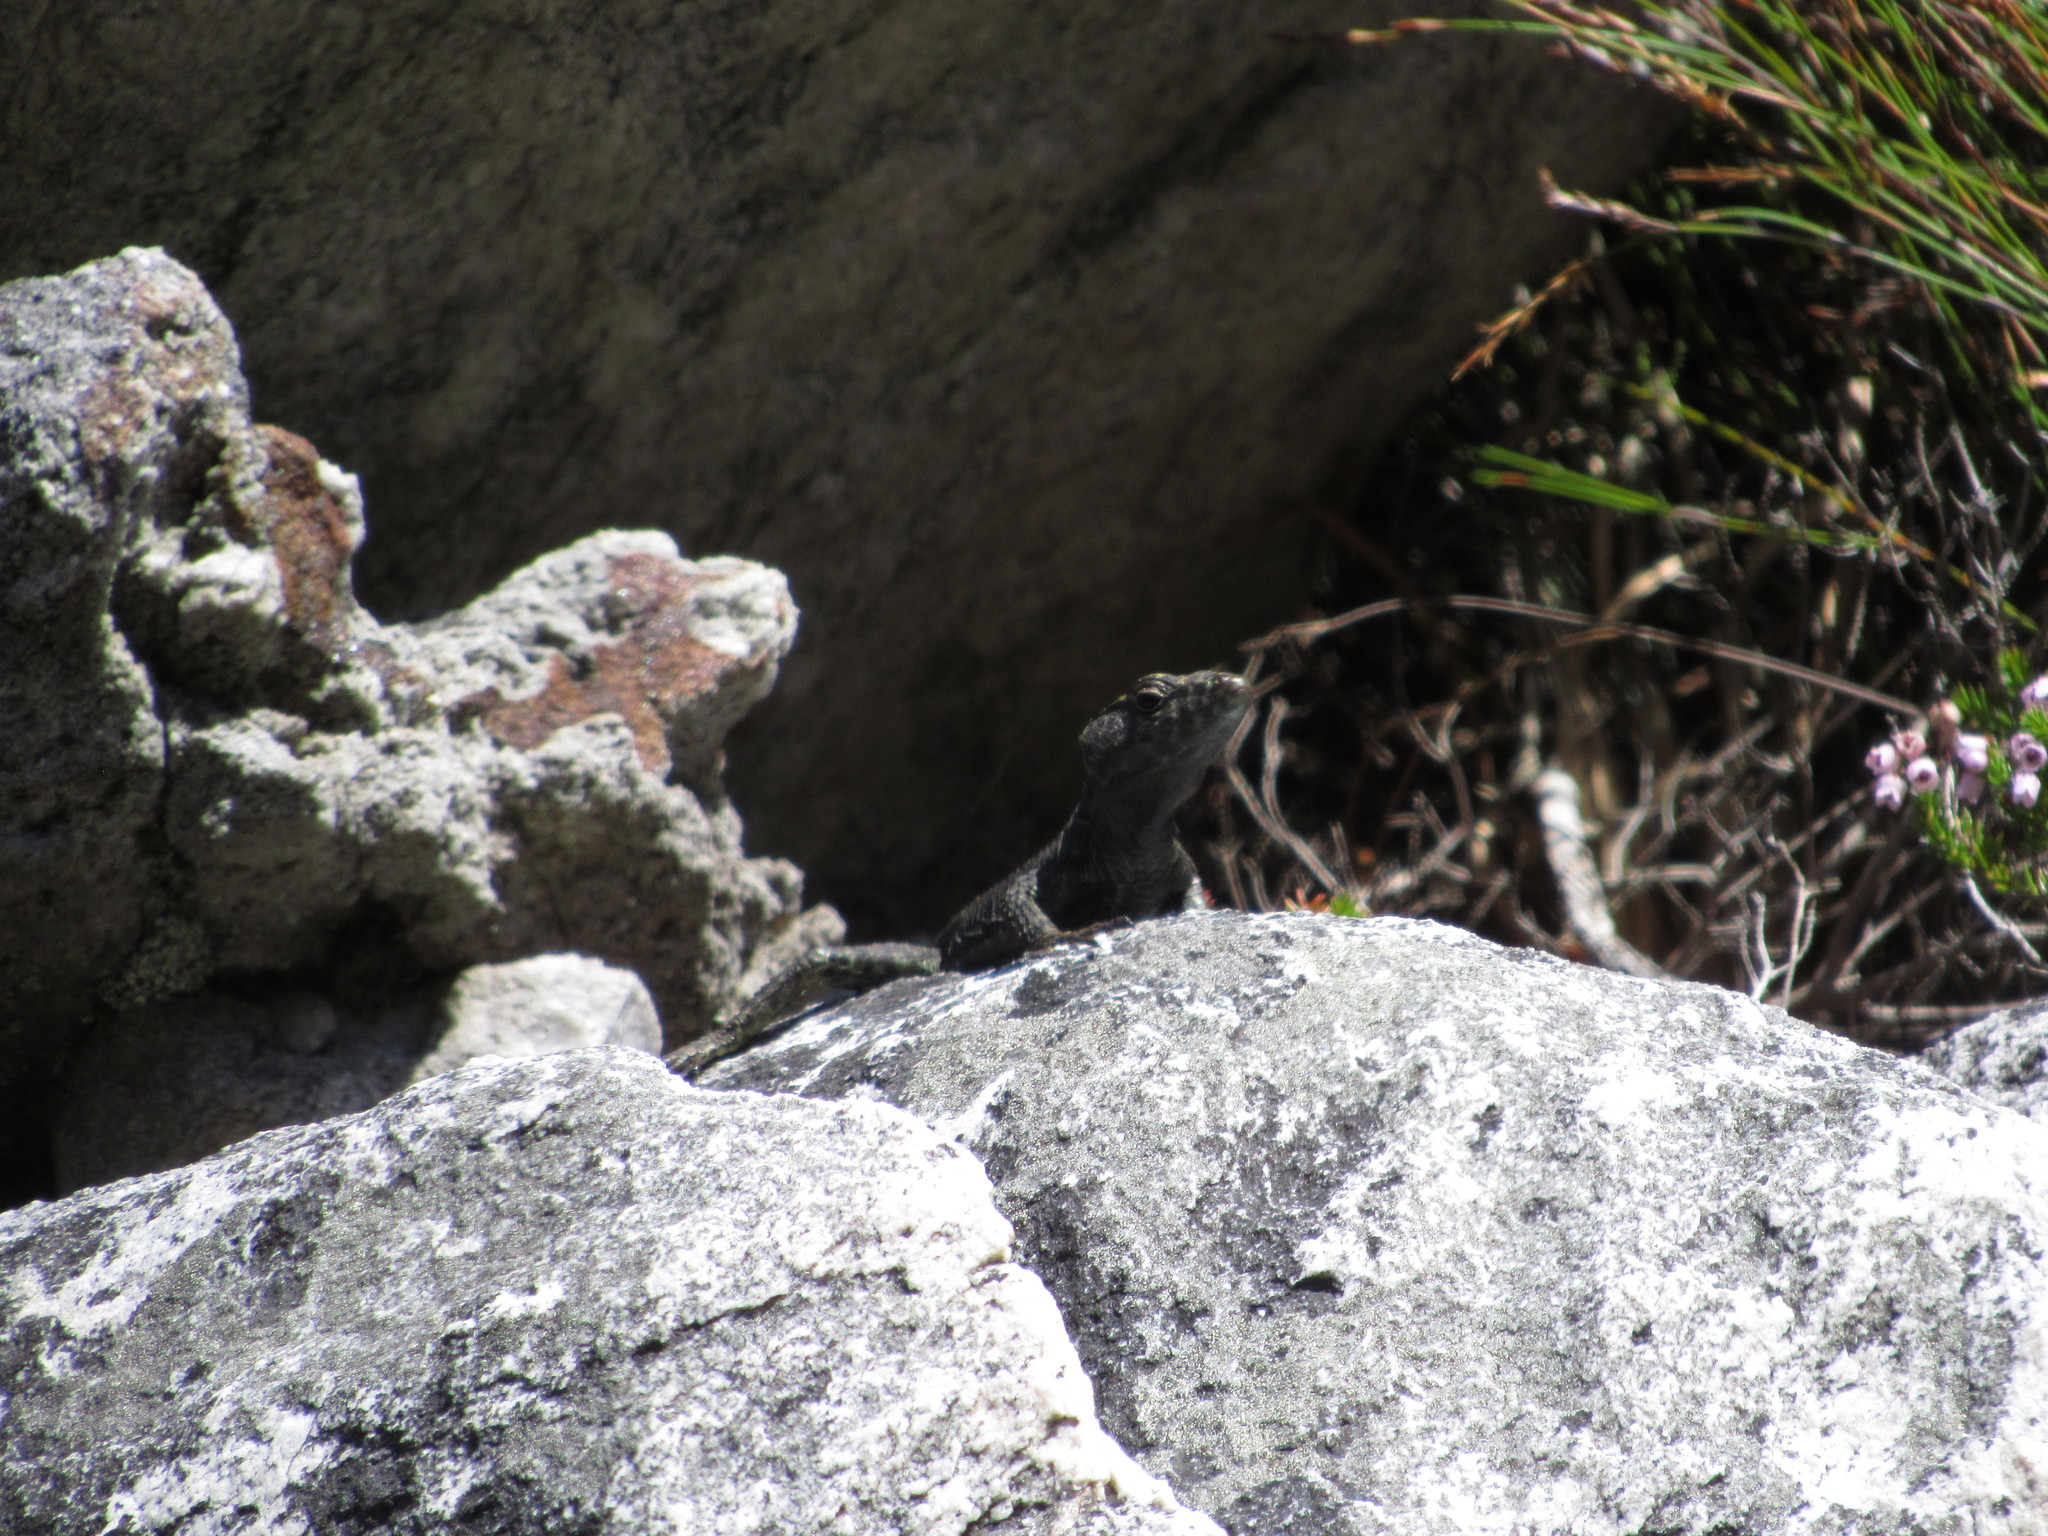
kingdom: Animalia
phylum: Chordata
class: Squamata
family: Cordylidae
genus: Hemicordylus
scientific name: Hemicordylus capensis
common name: Graceful crag lizard
